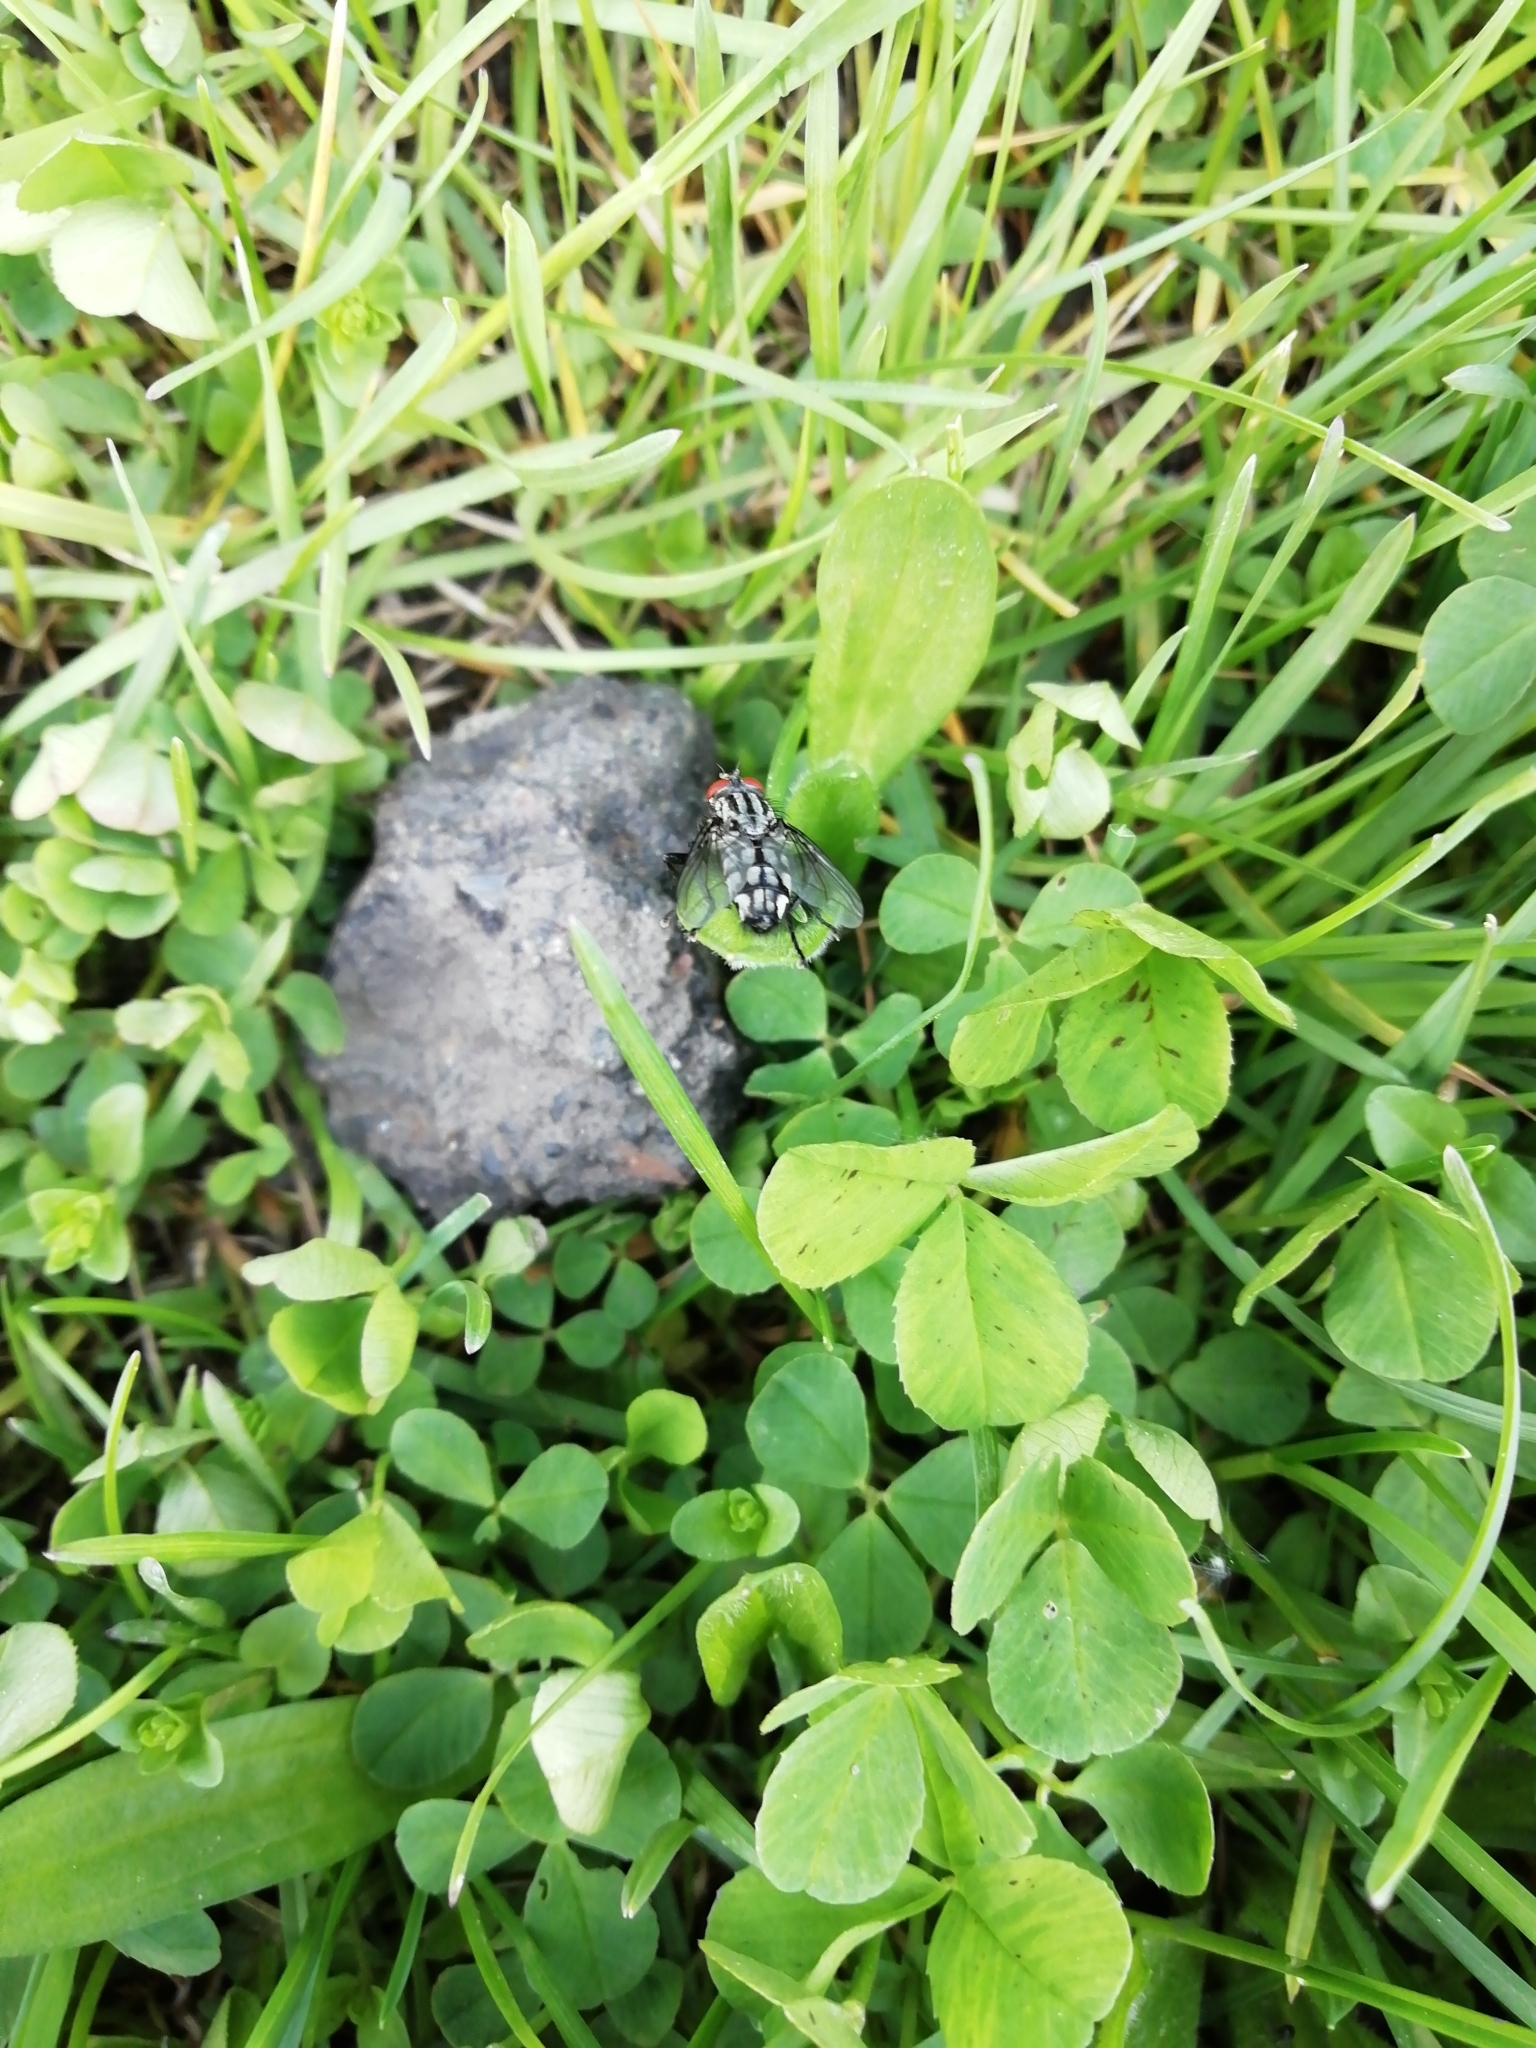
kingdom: Animalia
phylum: Arthropoda
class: Insecta
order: Diptera
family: Sarcophagidae
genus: Sarcophaga
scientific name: Sarcophaga
